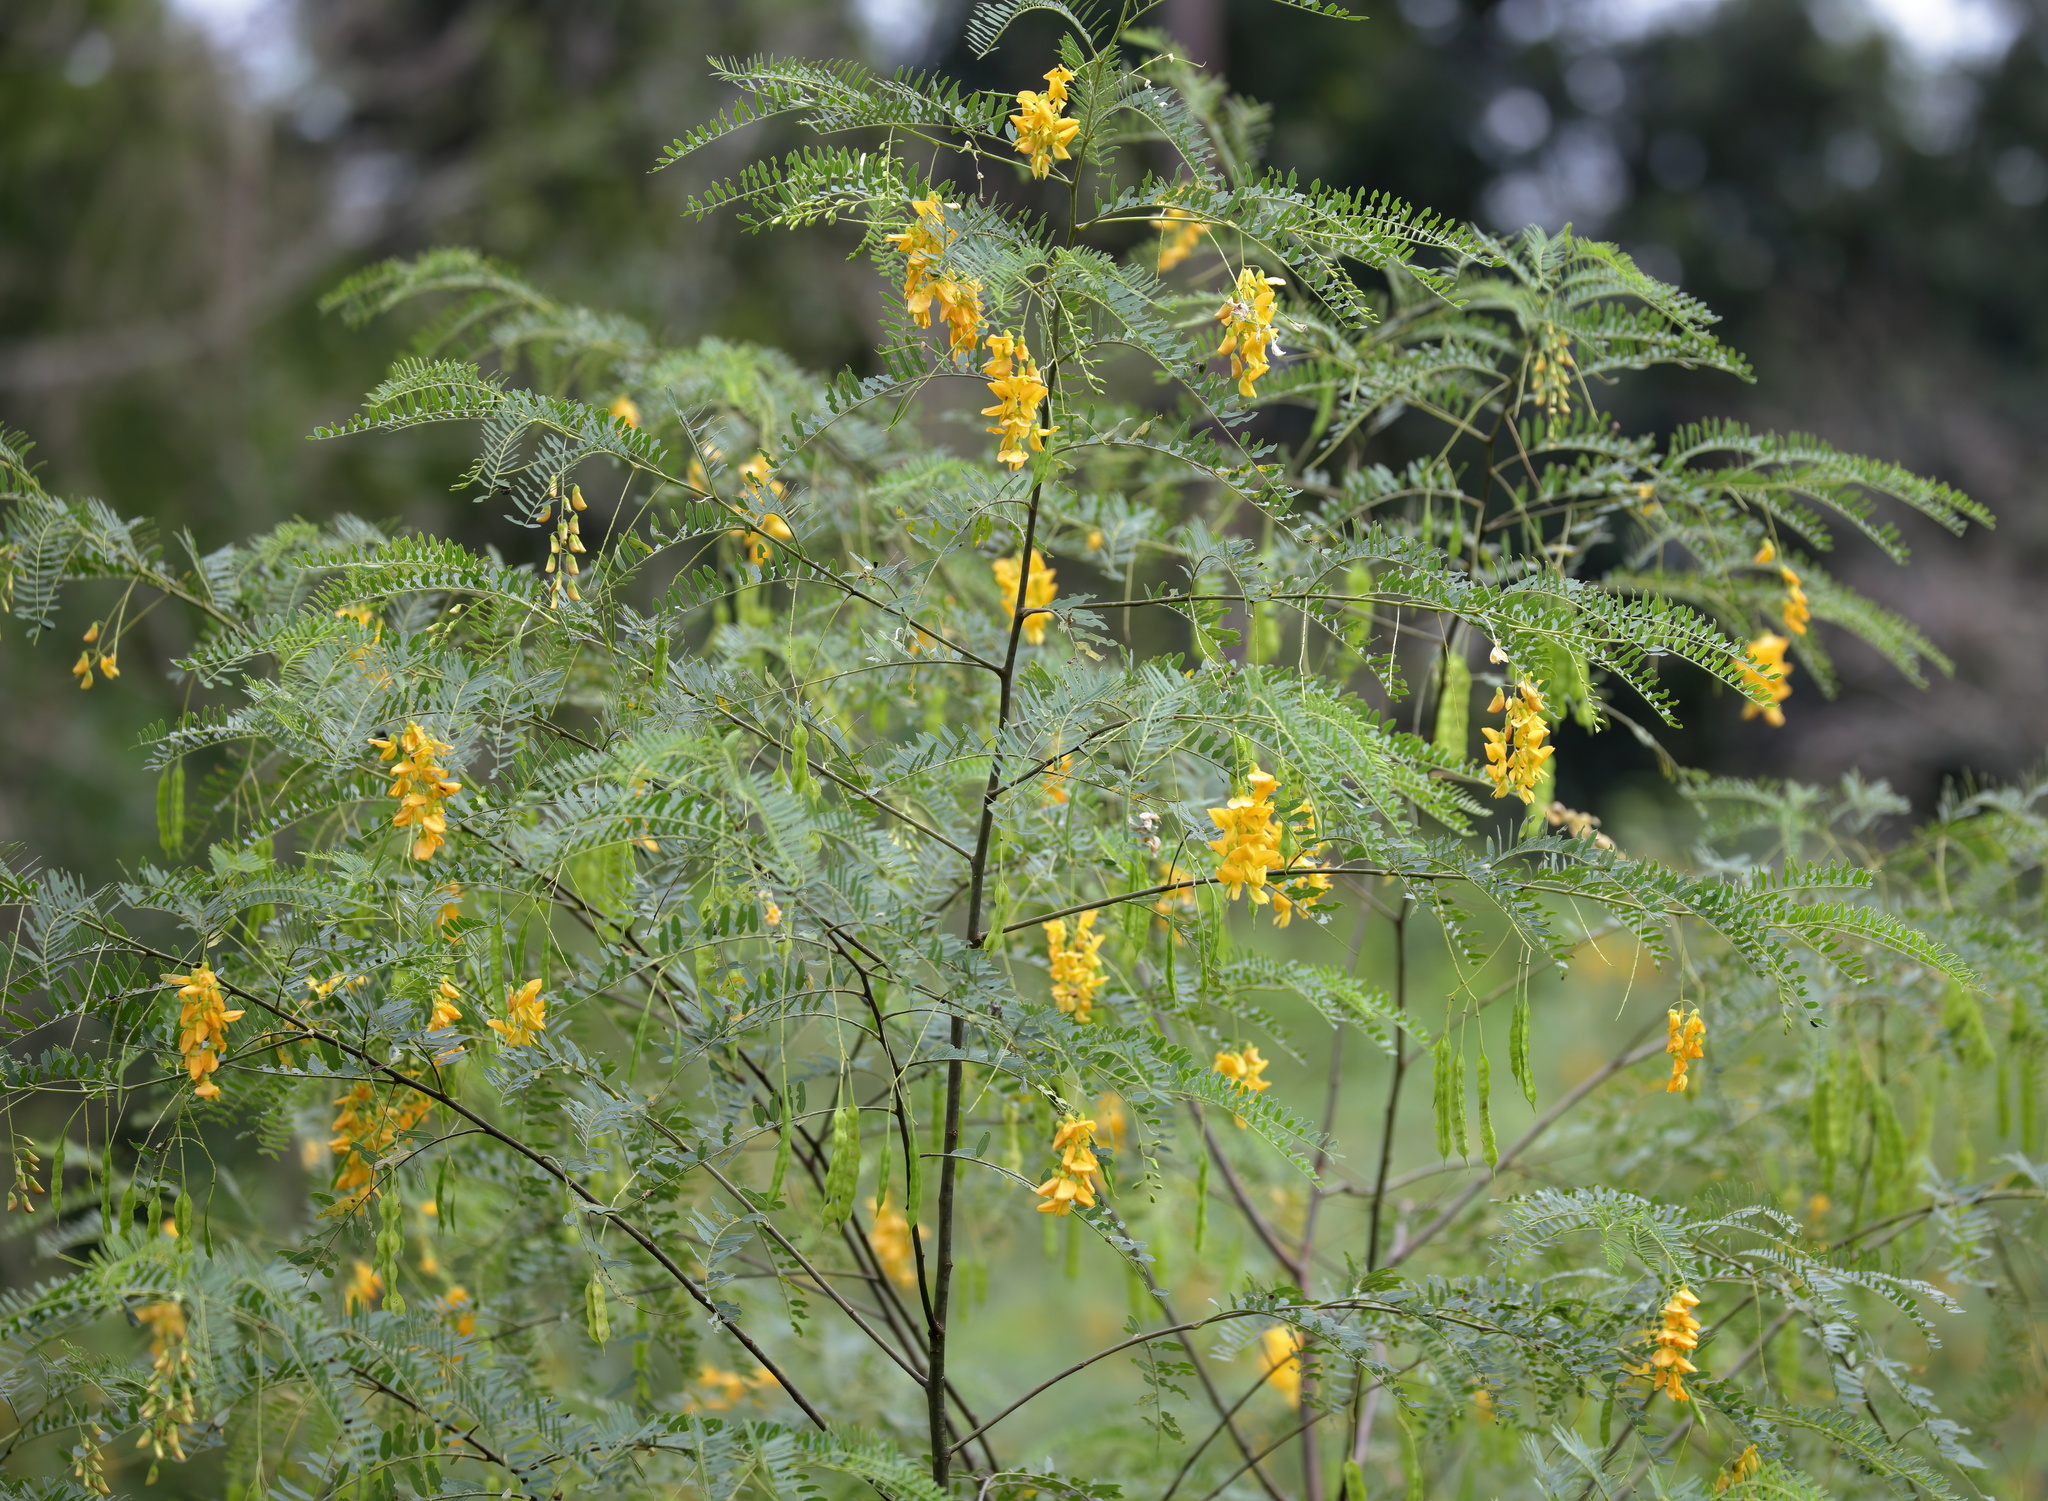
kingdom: Plantae
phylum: Tracheophyta
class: Magnoliopsida
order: Fabales
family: Fabaceae
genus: Sesbania
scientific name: Sesbania drummondii
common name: Poison-bean
